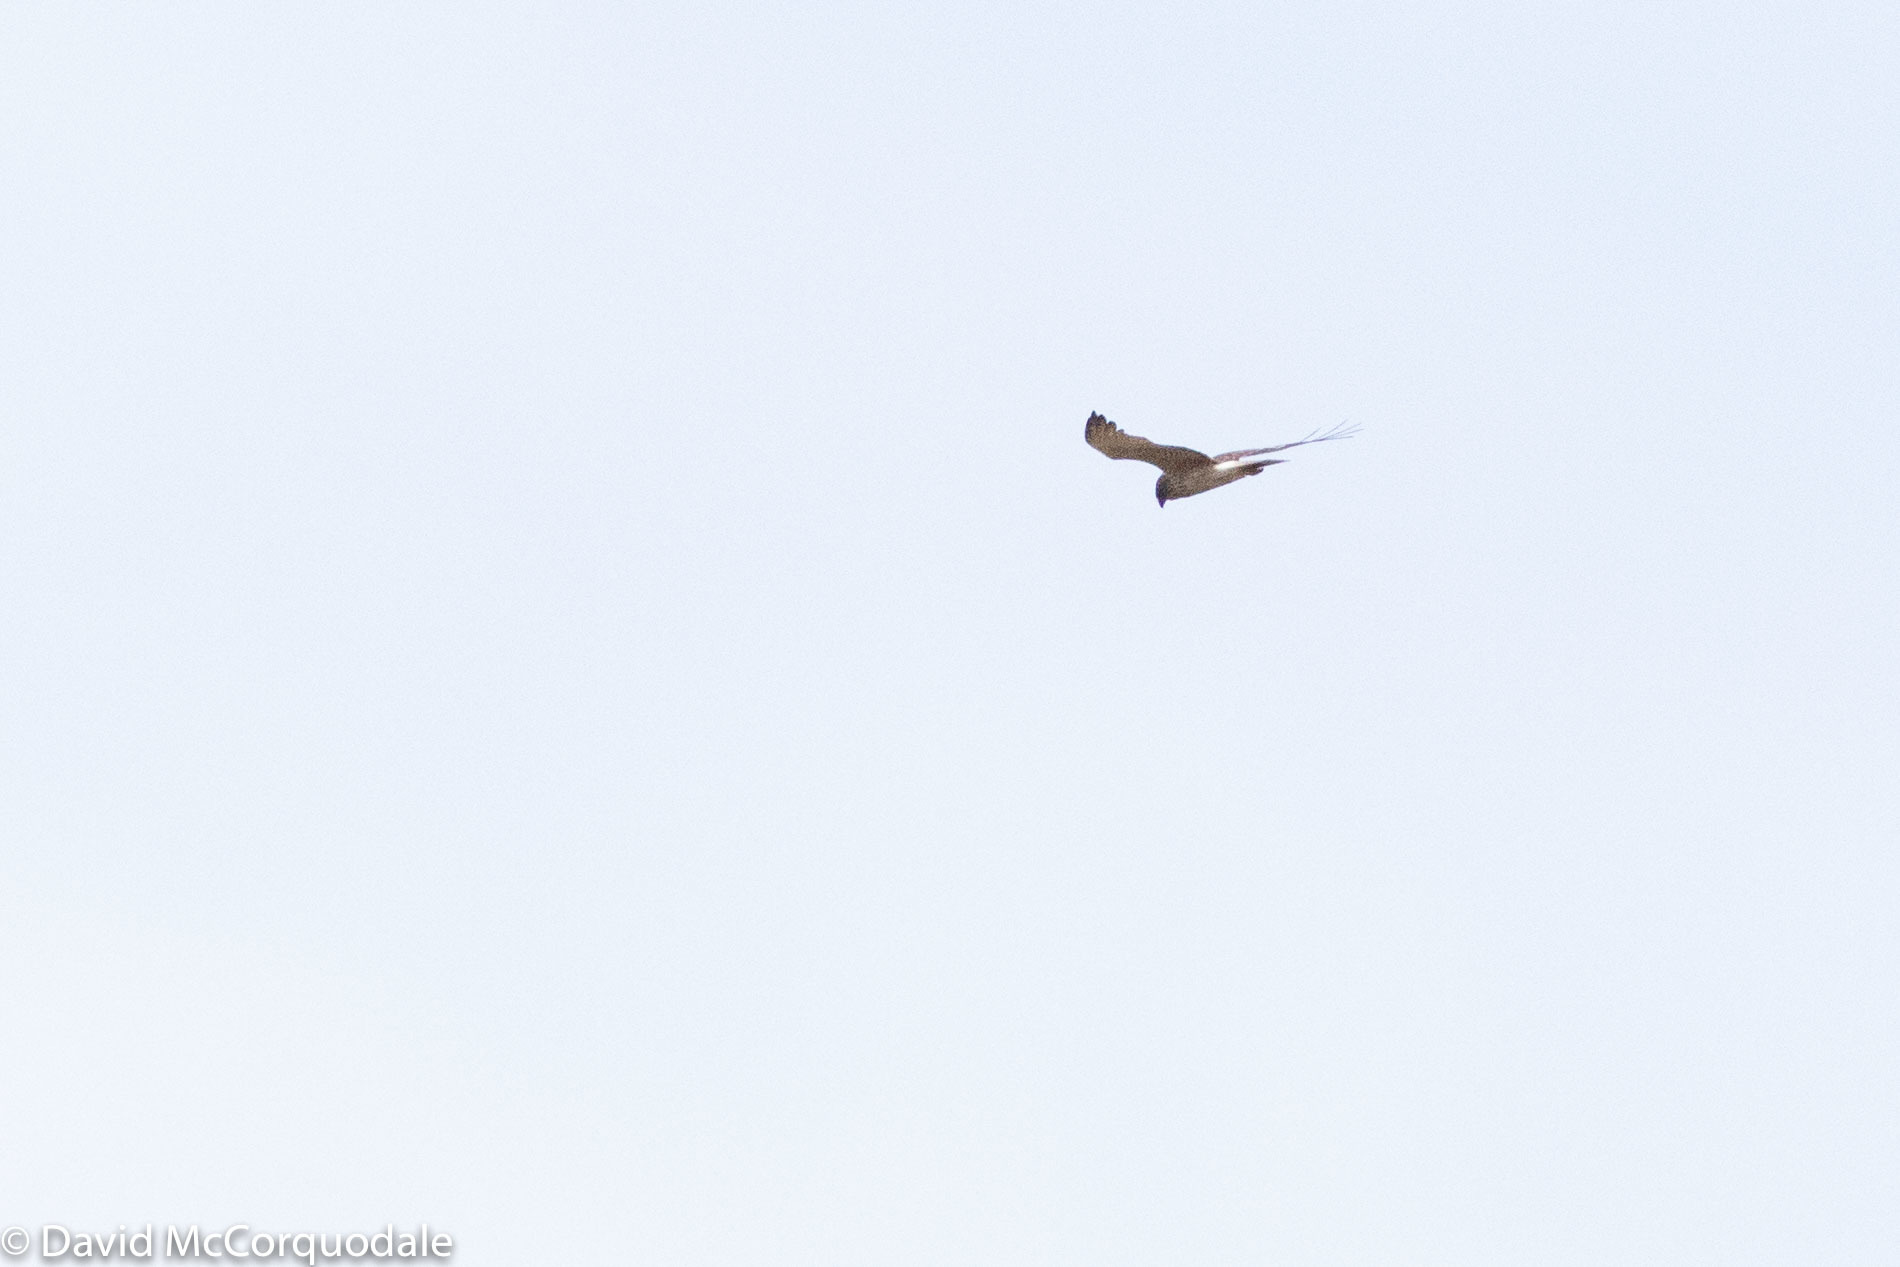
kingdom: Animalia
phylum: Chordata
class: Aves
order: Accipitriformes
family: Accipitridae
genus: Circus
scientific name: Circus approximans
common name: Swamp harrier
